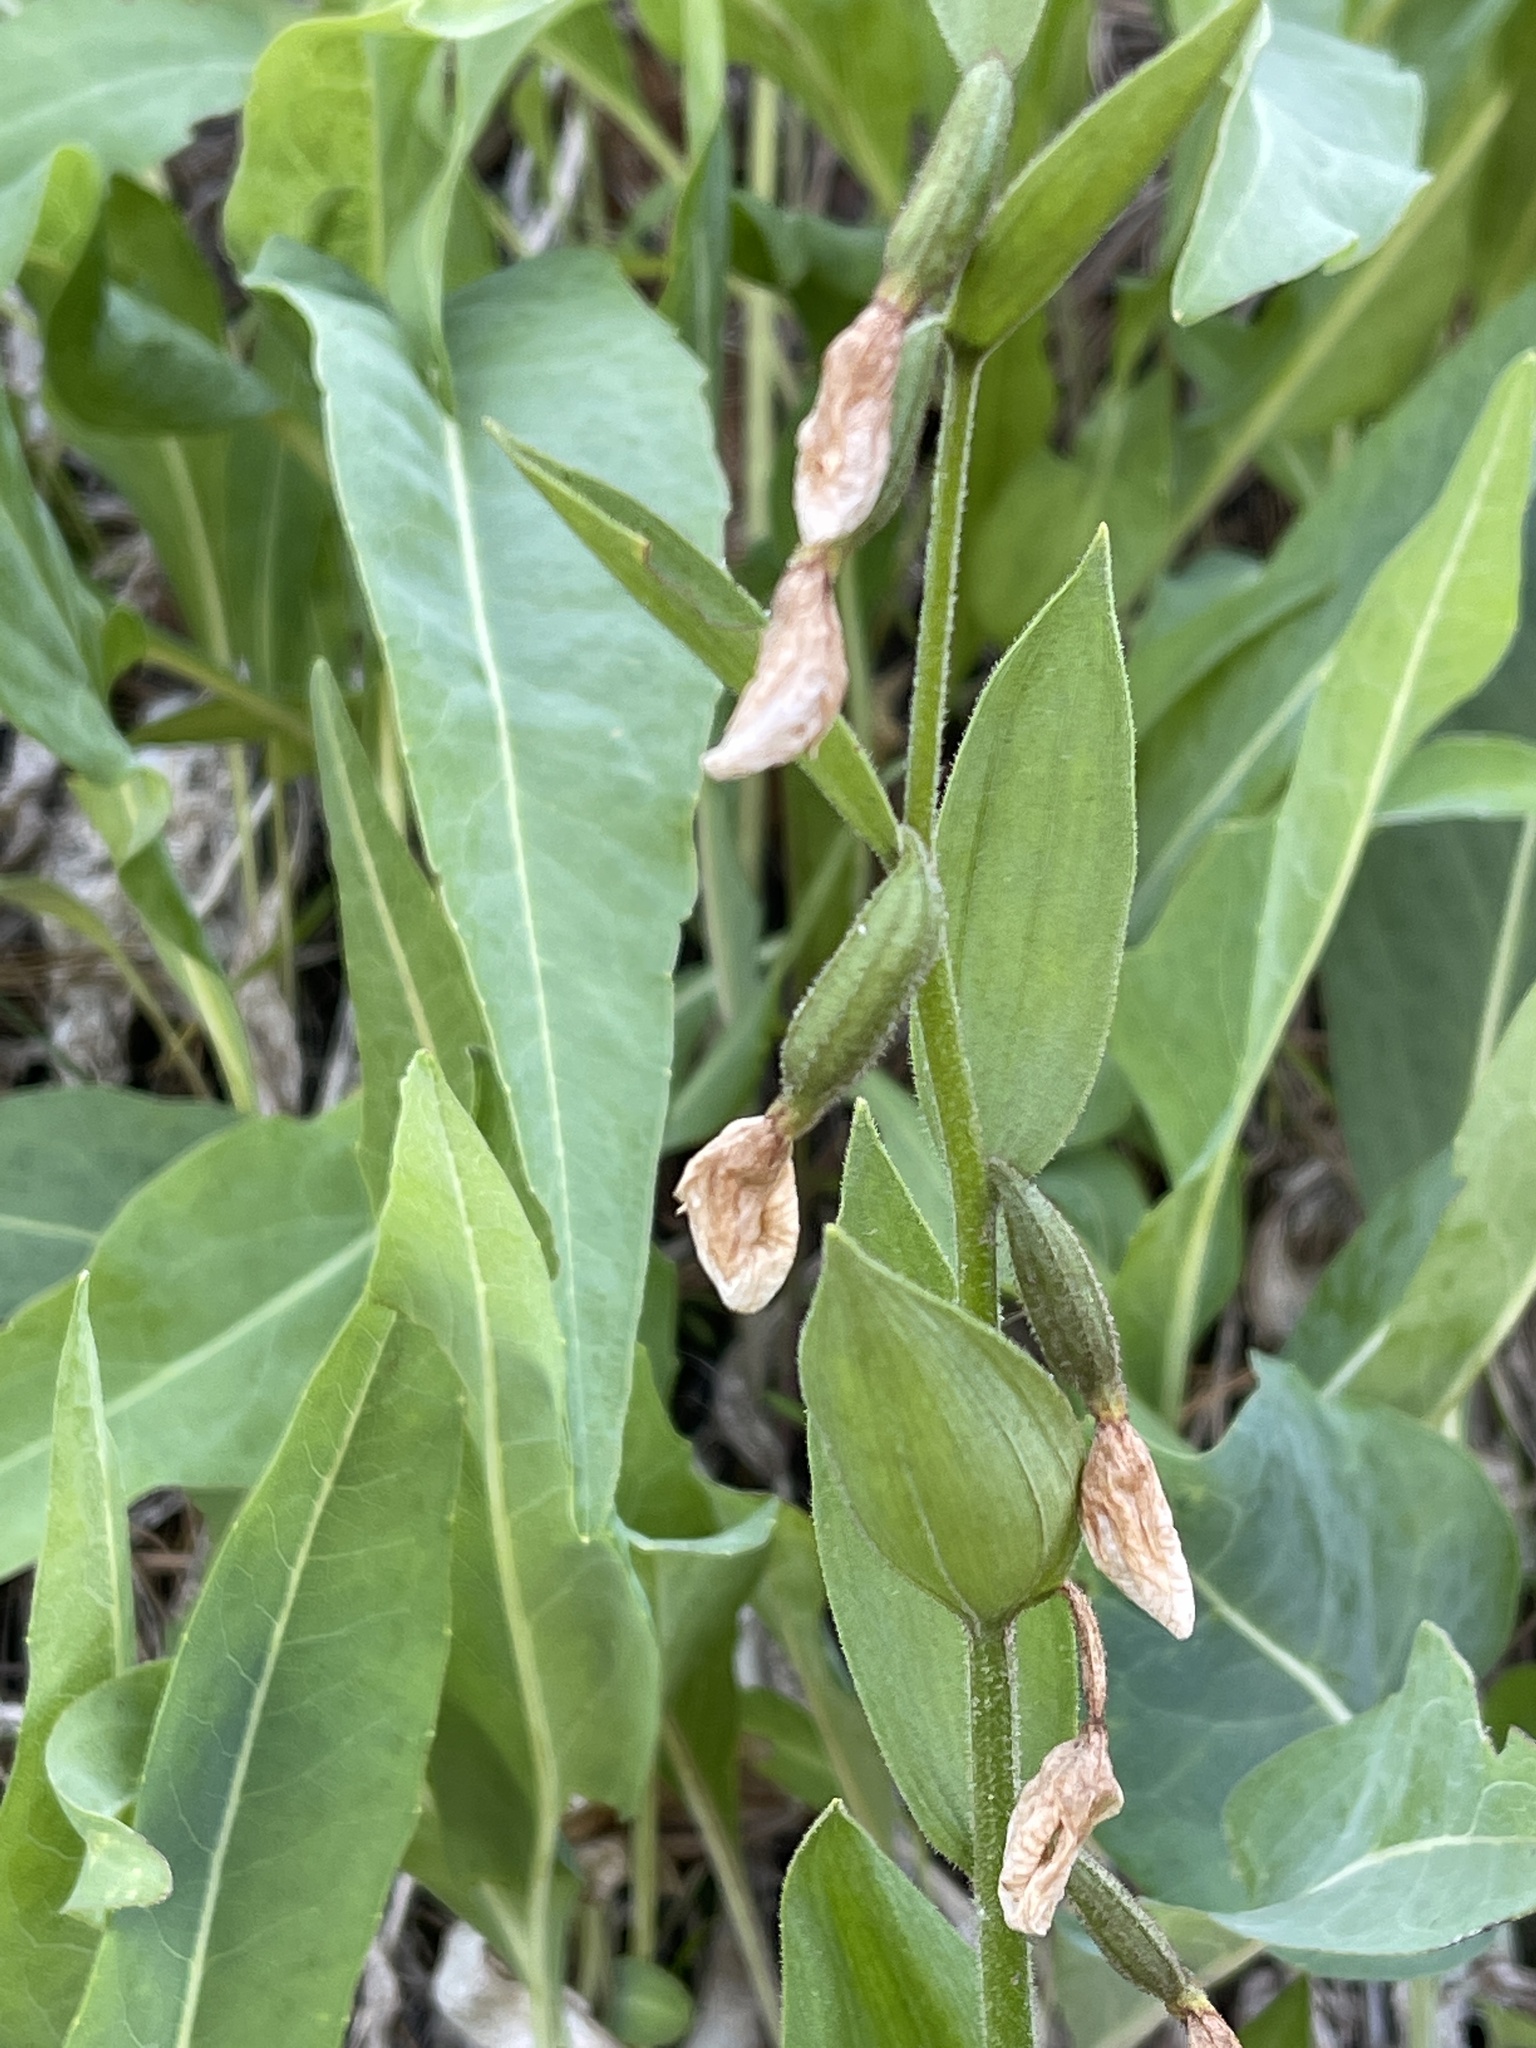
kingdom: Plantae
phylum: Tracheophyta
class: Liliopsida
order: Asparagales
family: Orchidaceae
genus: Cypripedium
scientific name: Cypripedium californicum
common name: California lady's slipper
